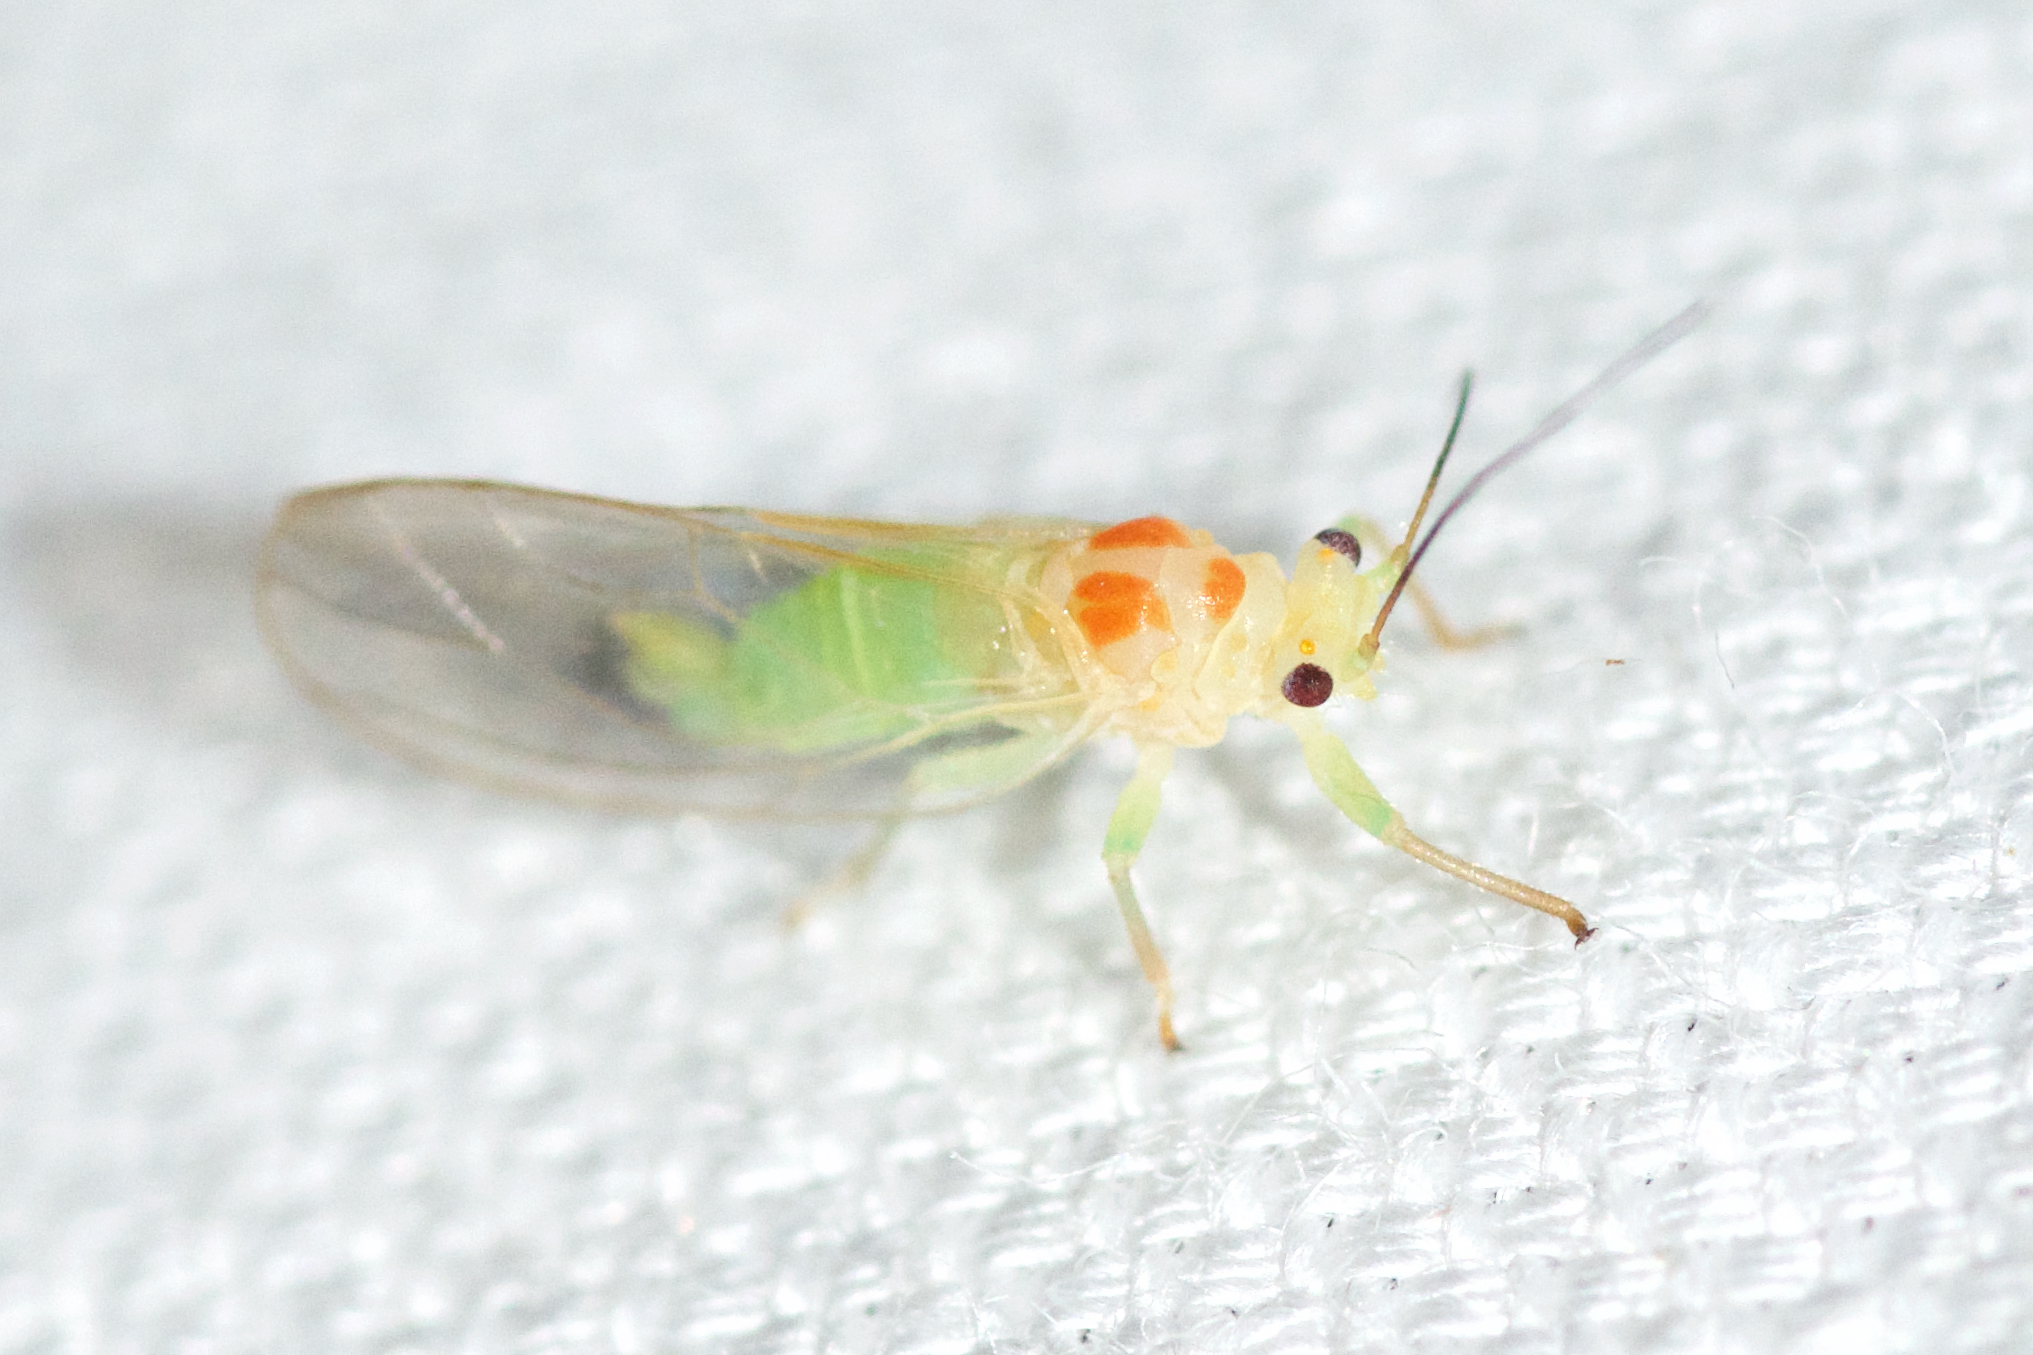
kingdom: Animalia
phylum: Arthropoda
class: Insecta
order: Hemiptera
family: Psyllidae
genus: Psylla
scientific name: Psylla sanguinea
